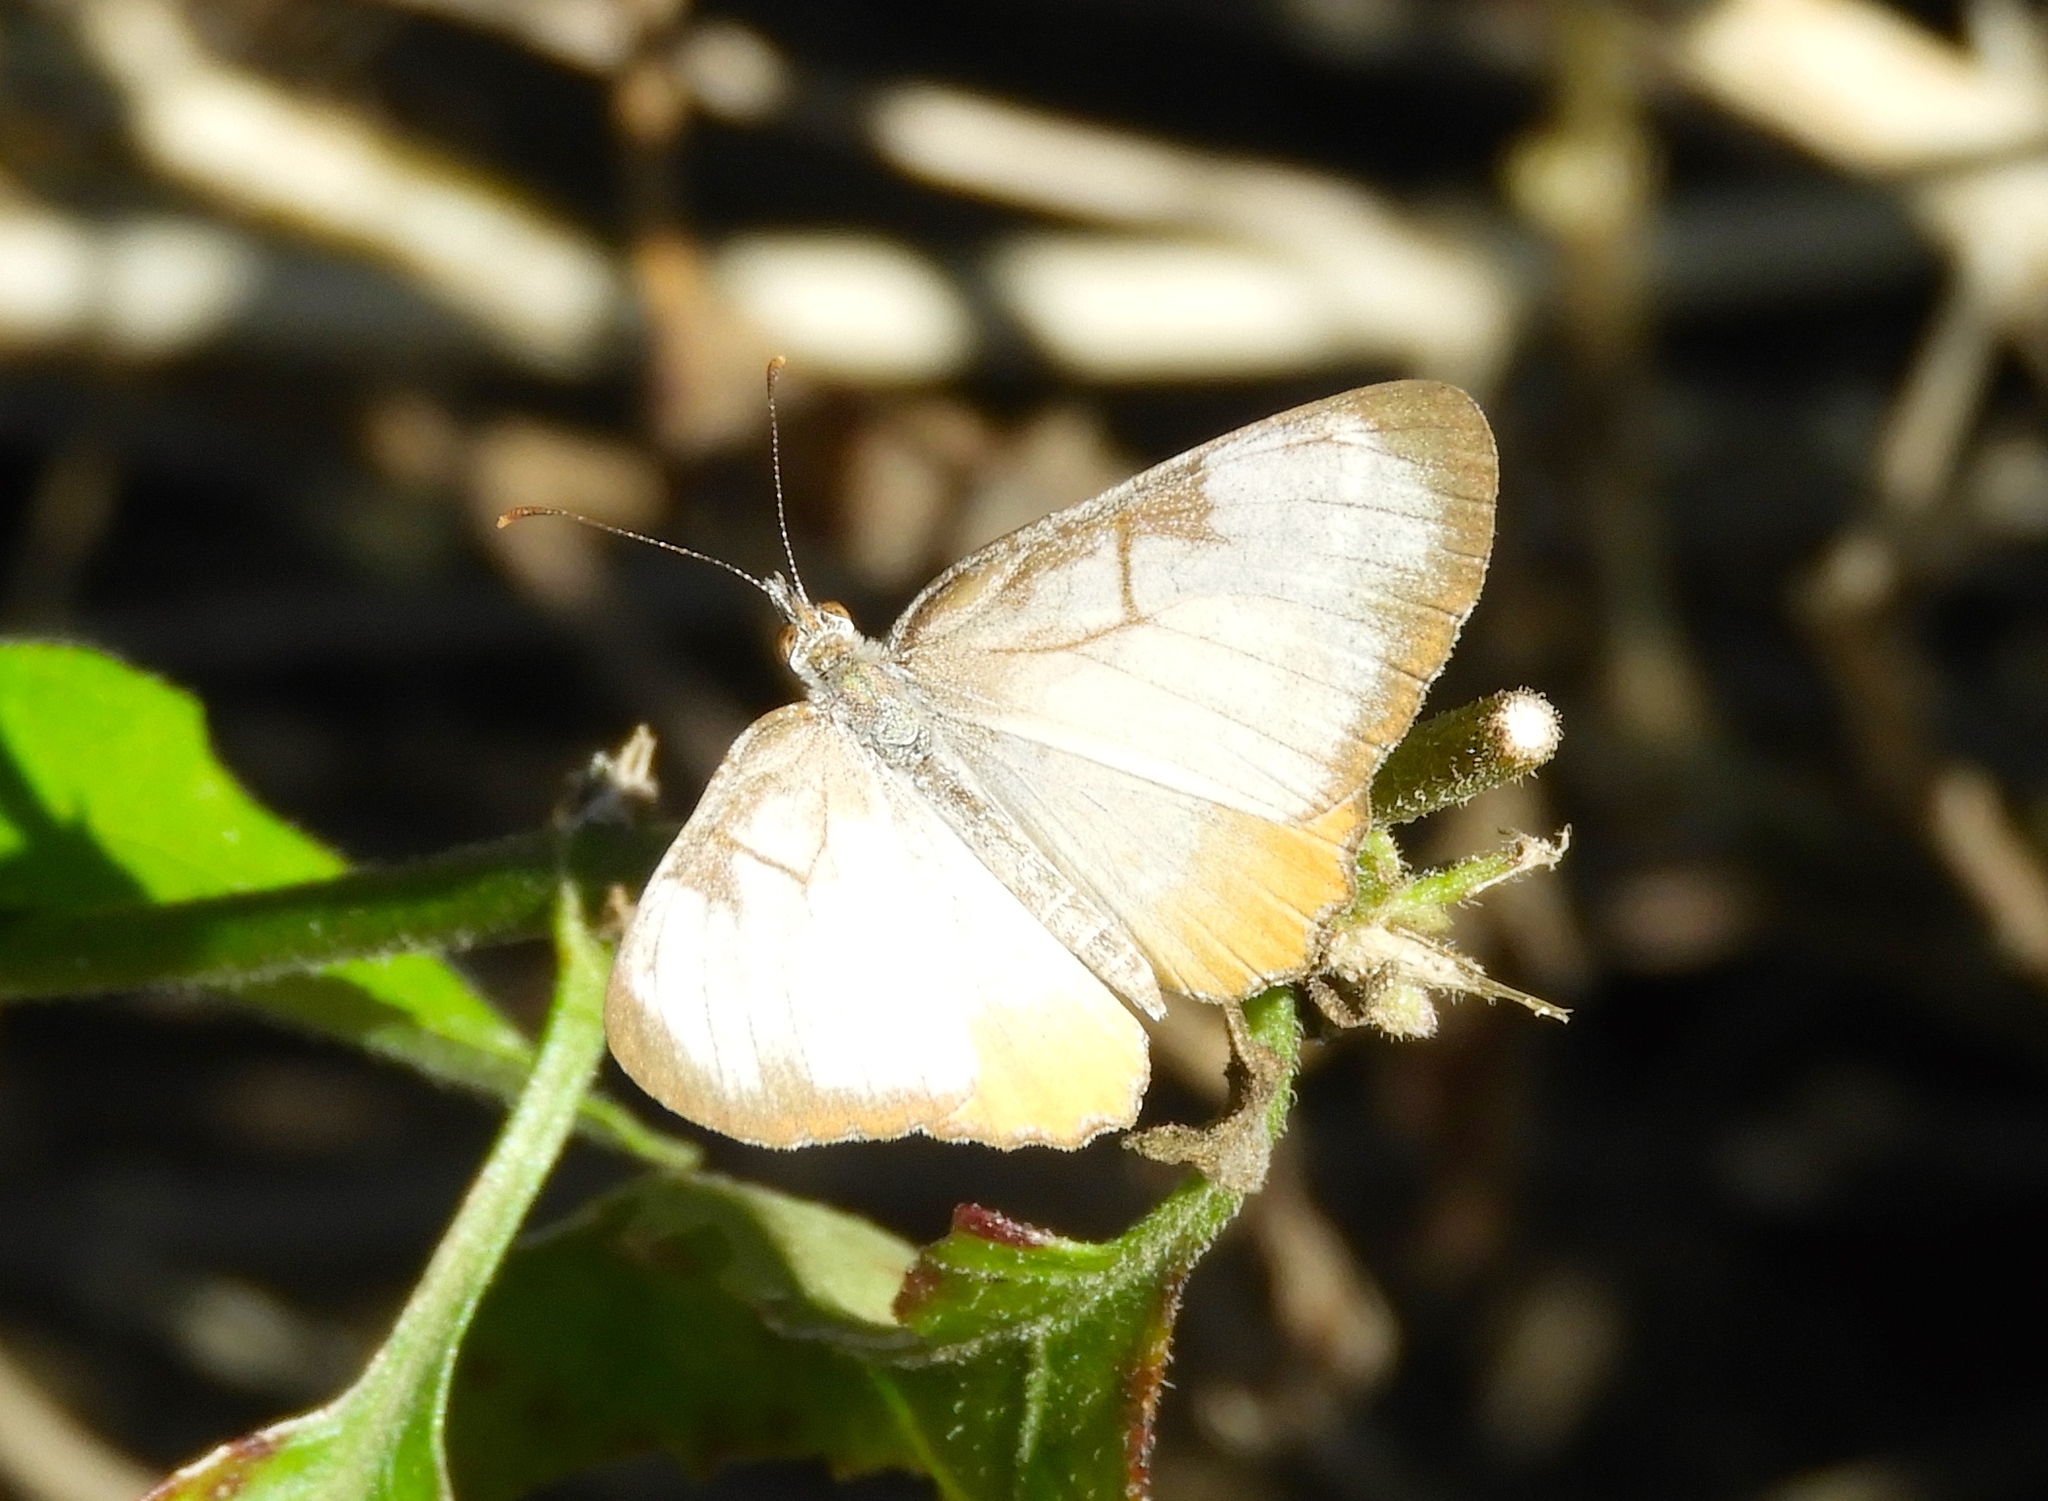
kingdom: Animalia
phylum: Arthropoda
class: Insecta
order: Lepidoptera
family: Nymphalidae
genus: Mestra
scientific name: Mestra amymone
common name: Common mestra
